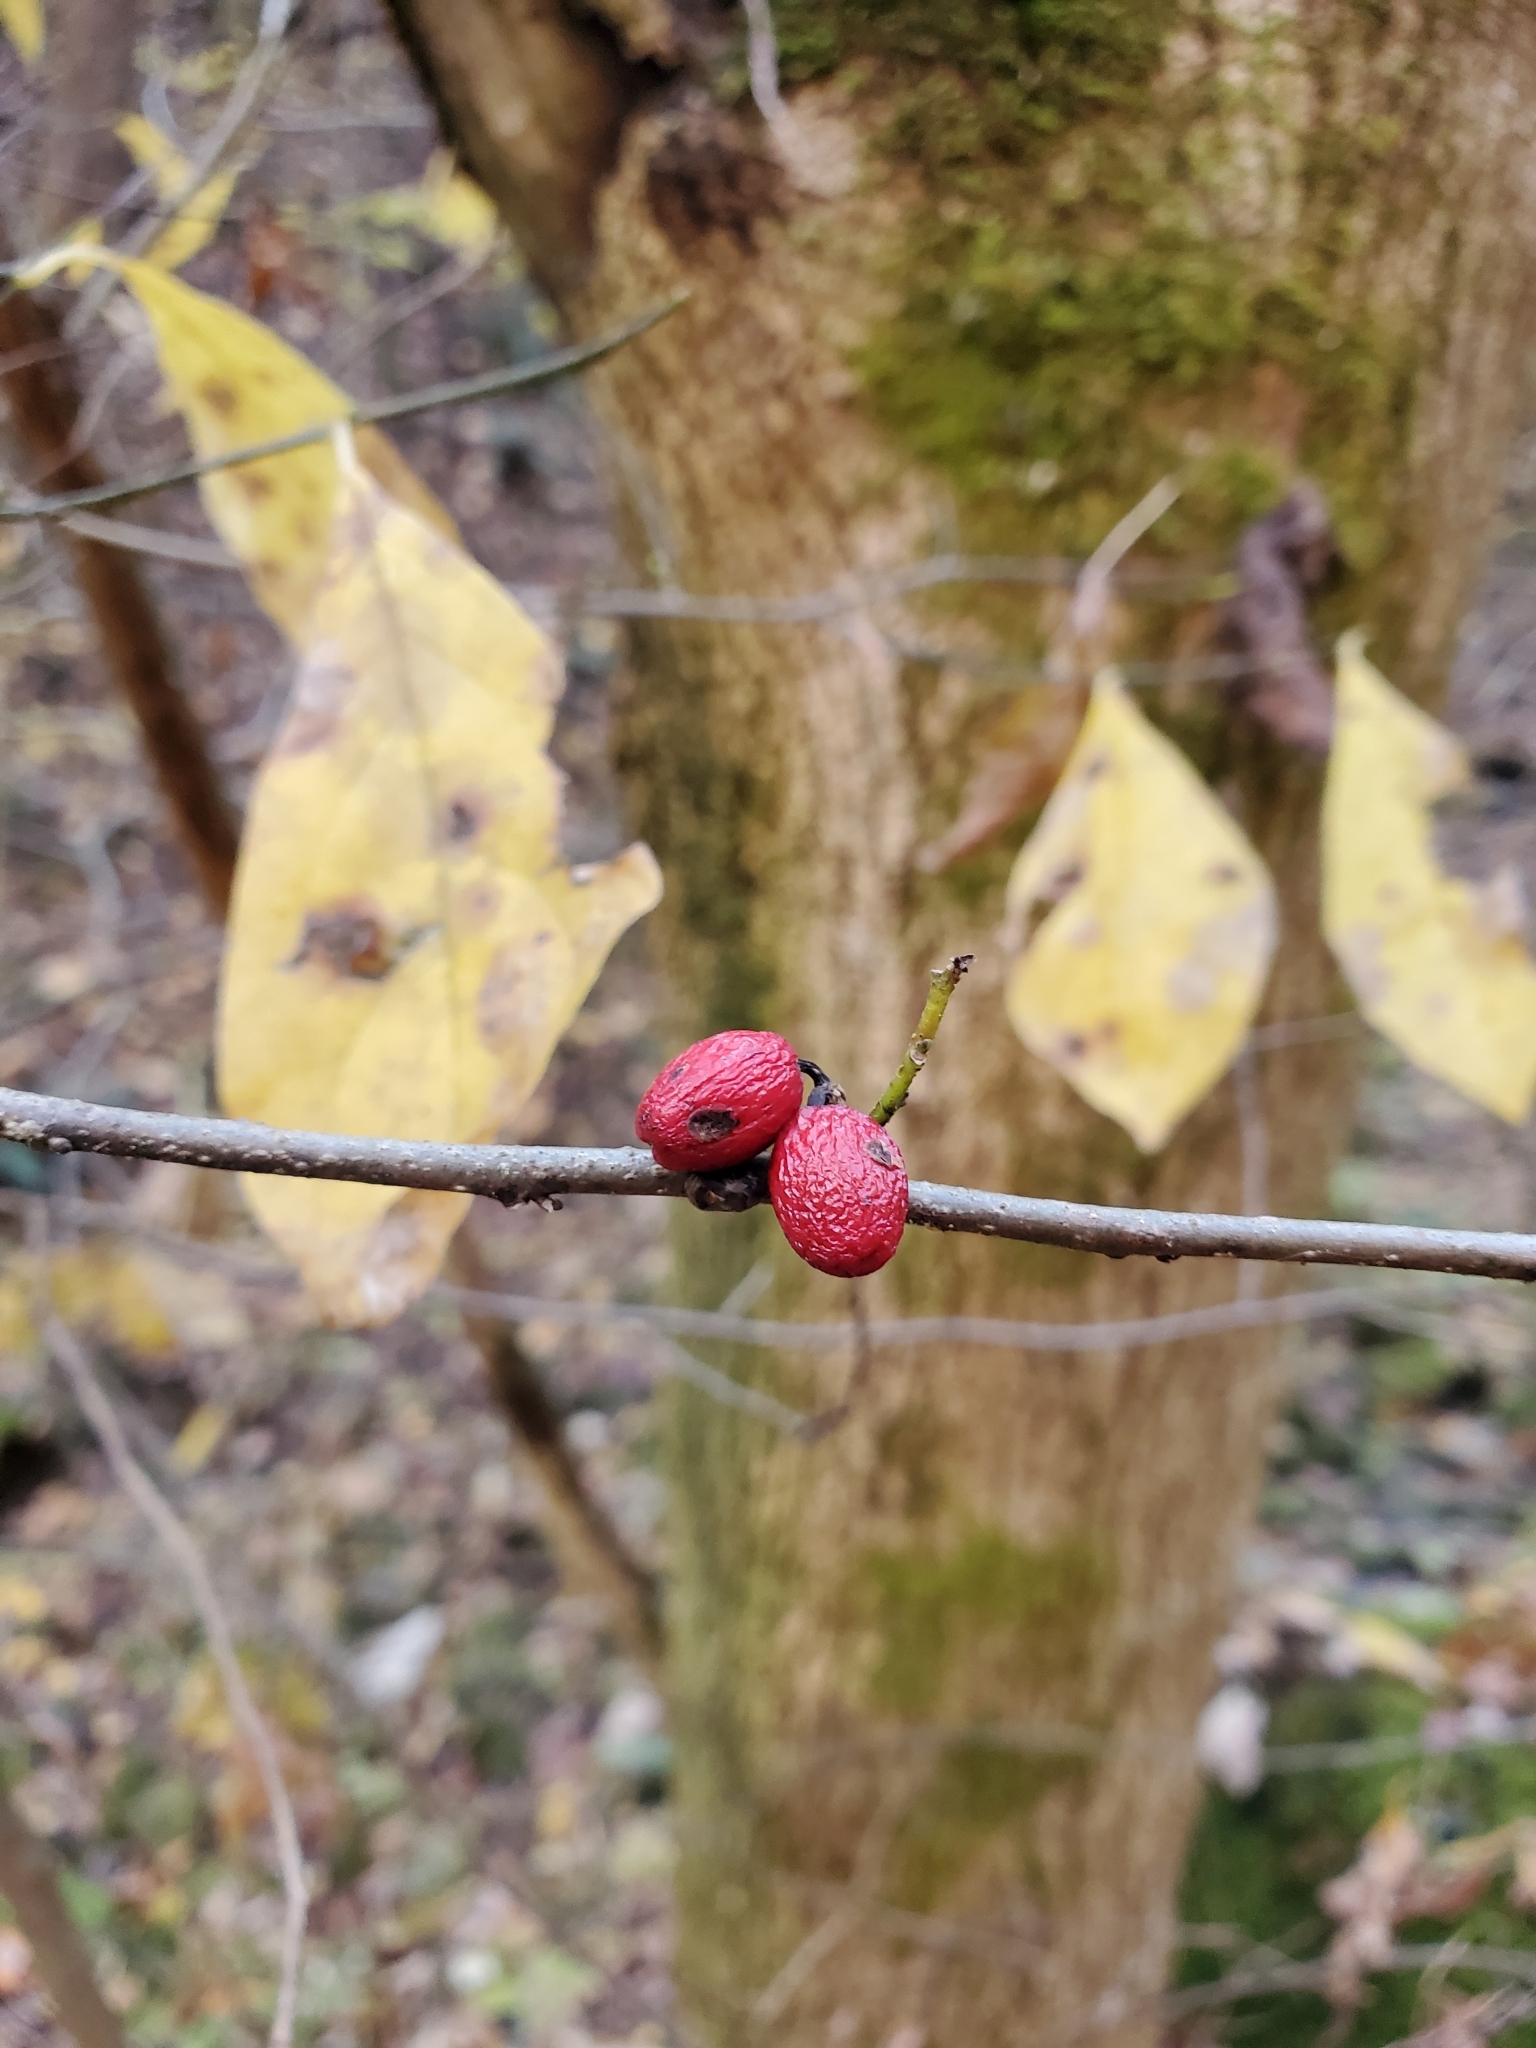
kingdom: Plantae
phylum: Tracheophyta
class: Magnoliopsida
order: Laurales
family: Lauraceae
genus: Lindera
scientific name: Lindera benzoin
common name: Spicebush
